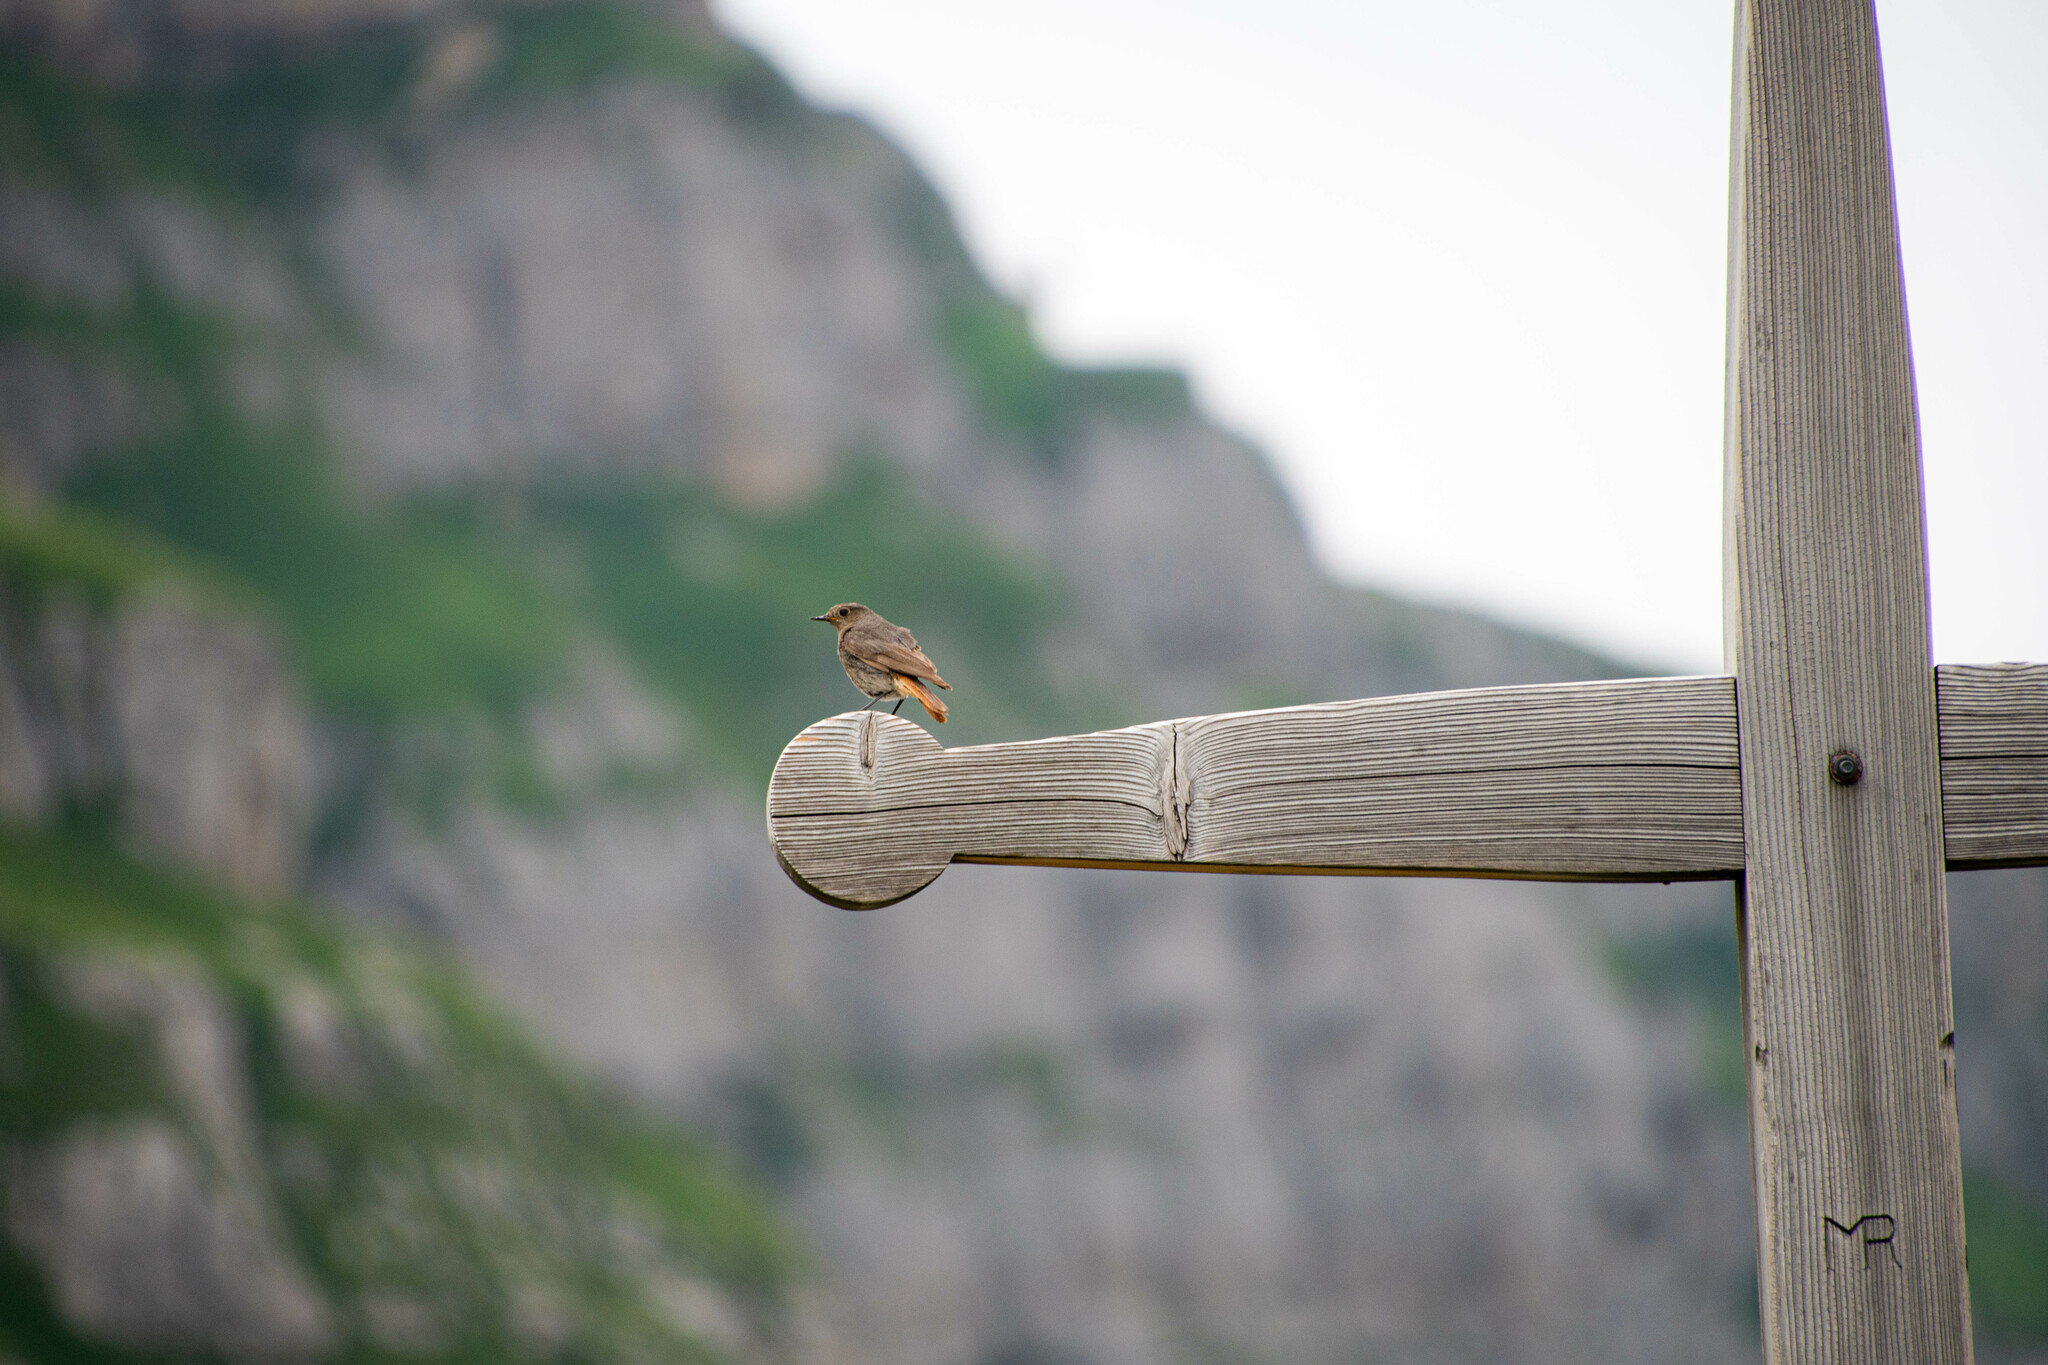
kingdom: Animalia
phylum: Chordata
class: Aves
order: Passeriformes
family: Muscicapidae
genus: Phoenicurus
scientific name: Phoenicurus ochruros
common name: Black redstart
